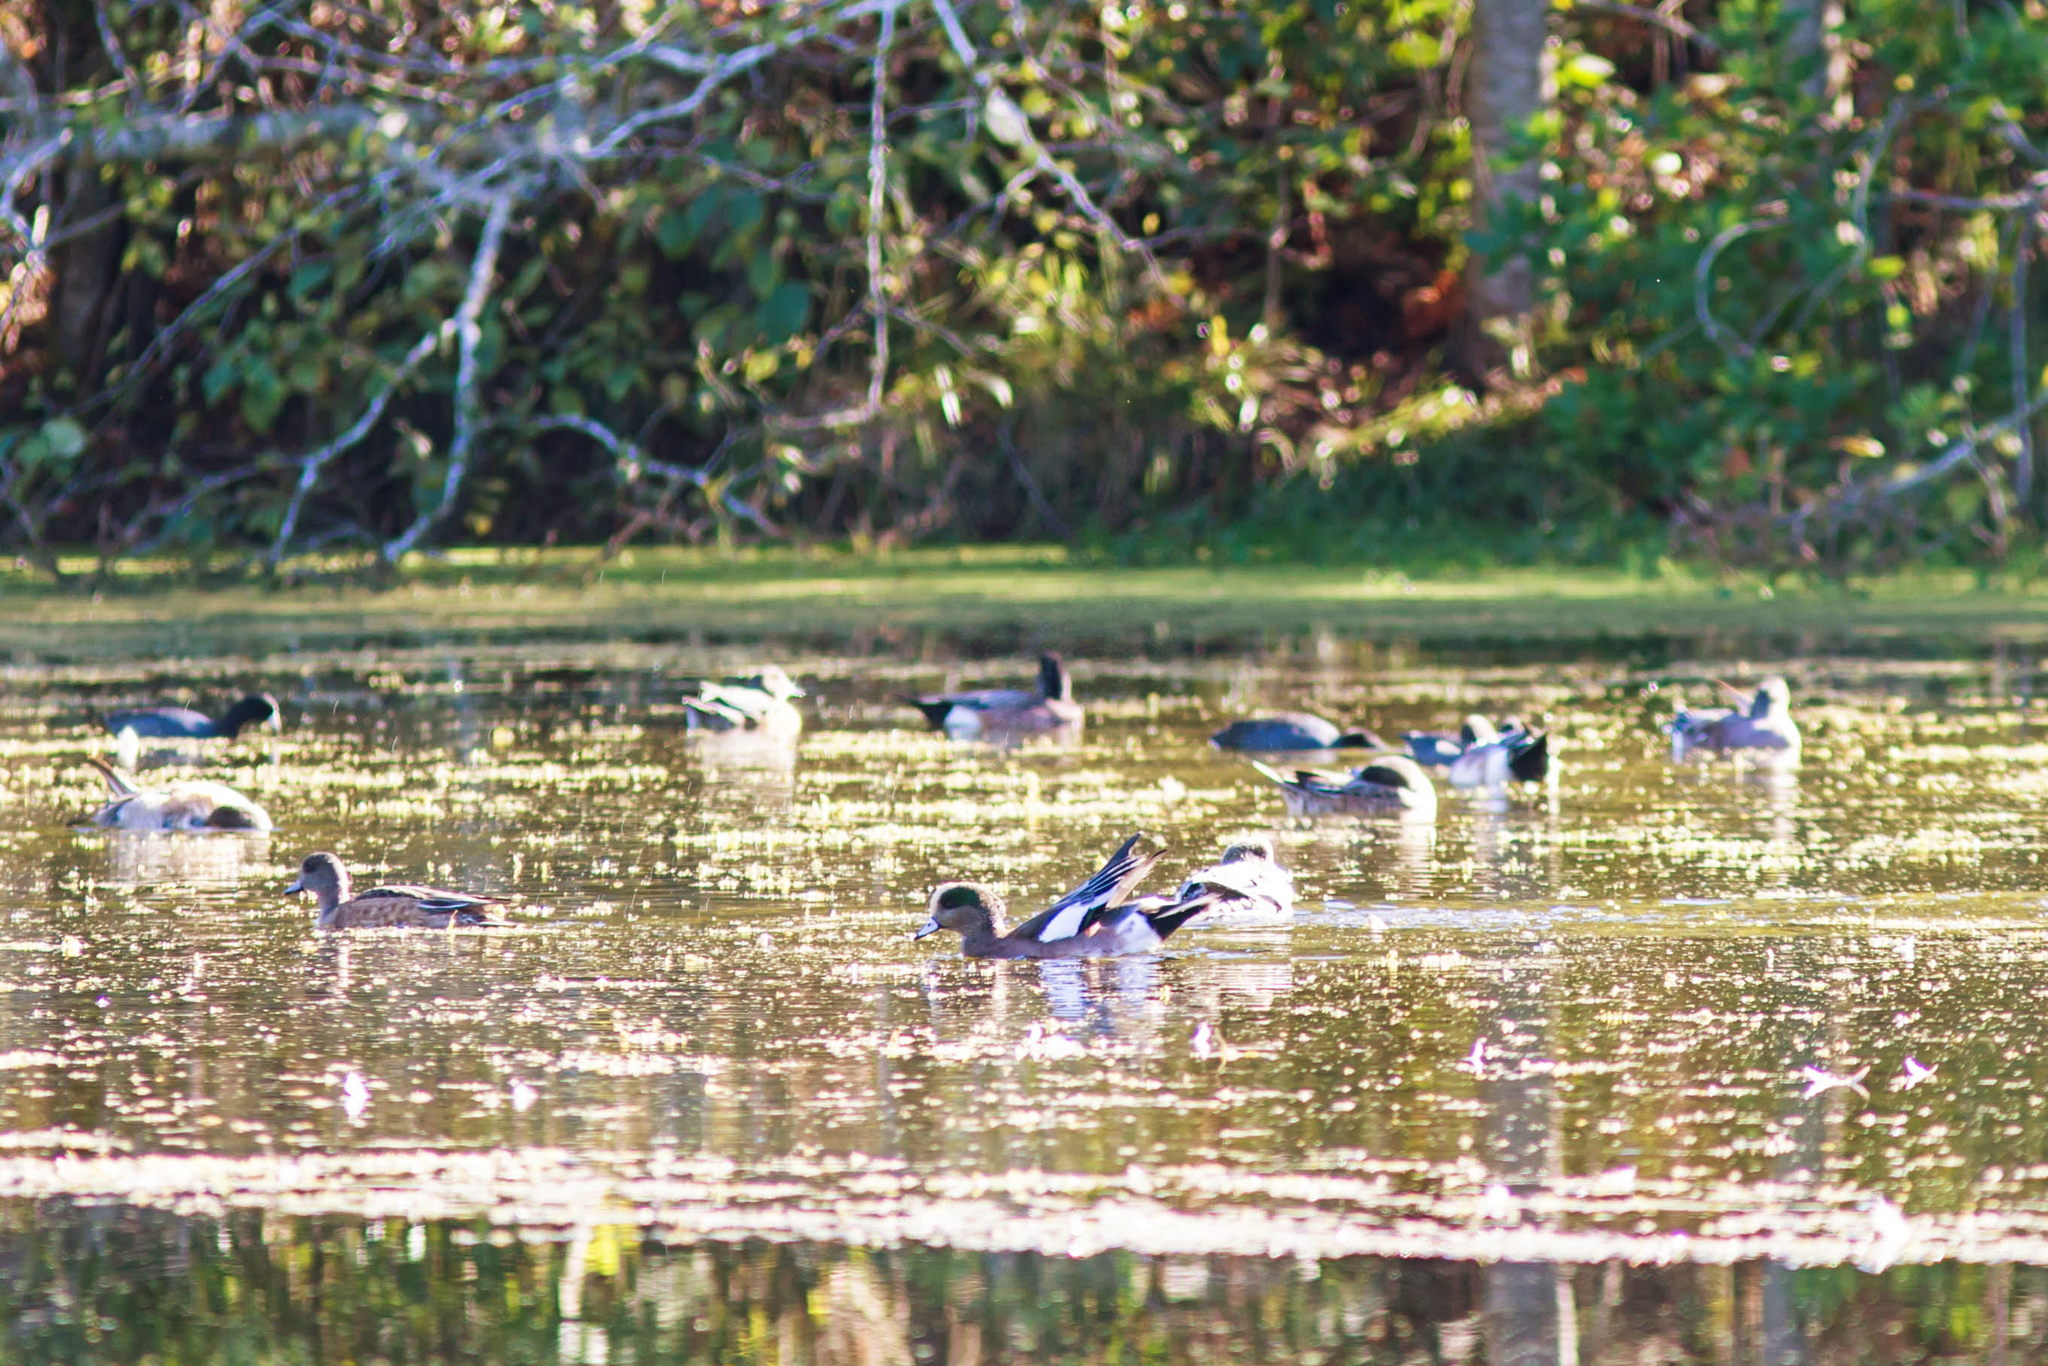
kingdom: Animalia
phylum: Chordata
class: Aves
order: Anseriformes
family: Anatidae
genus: Mareca
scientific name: Mareca americana
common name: American wigeon
